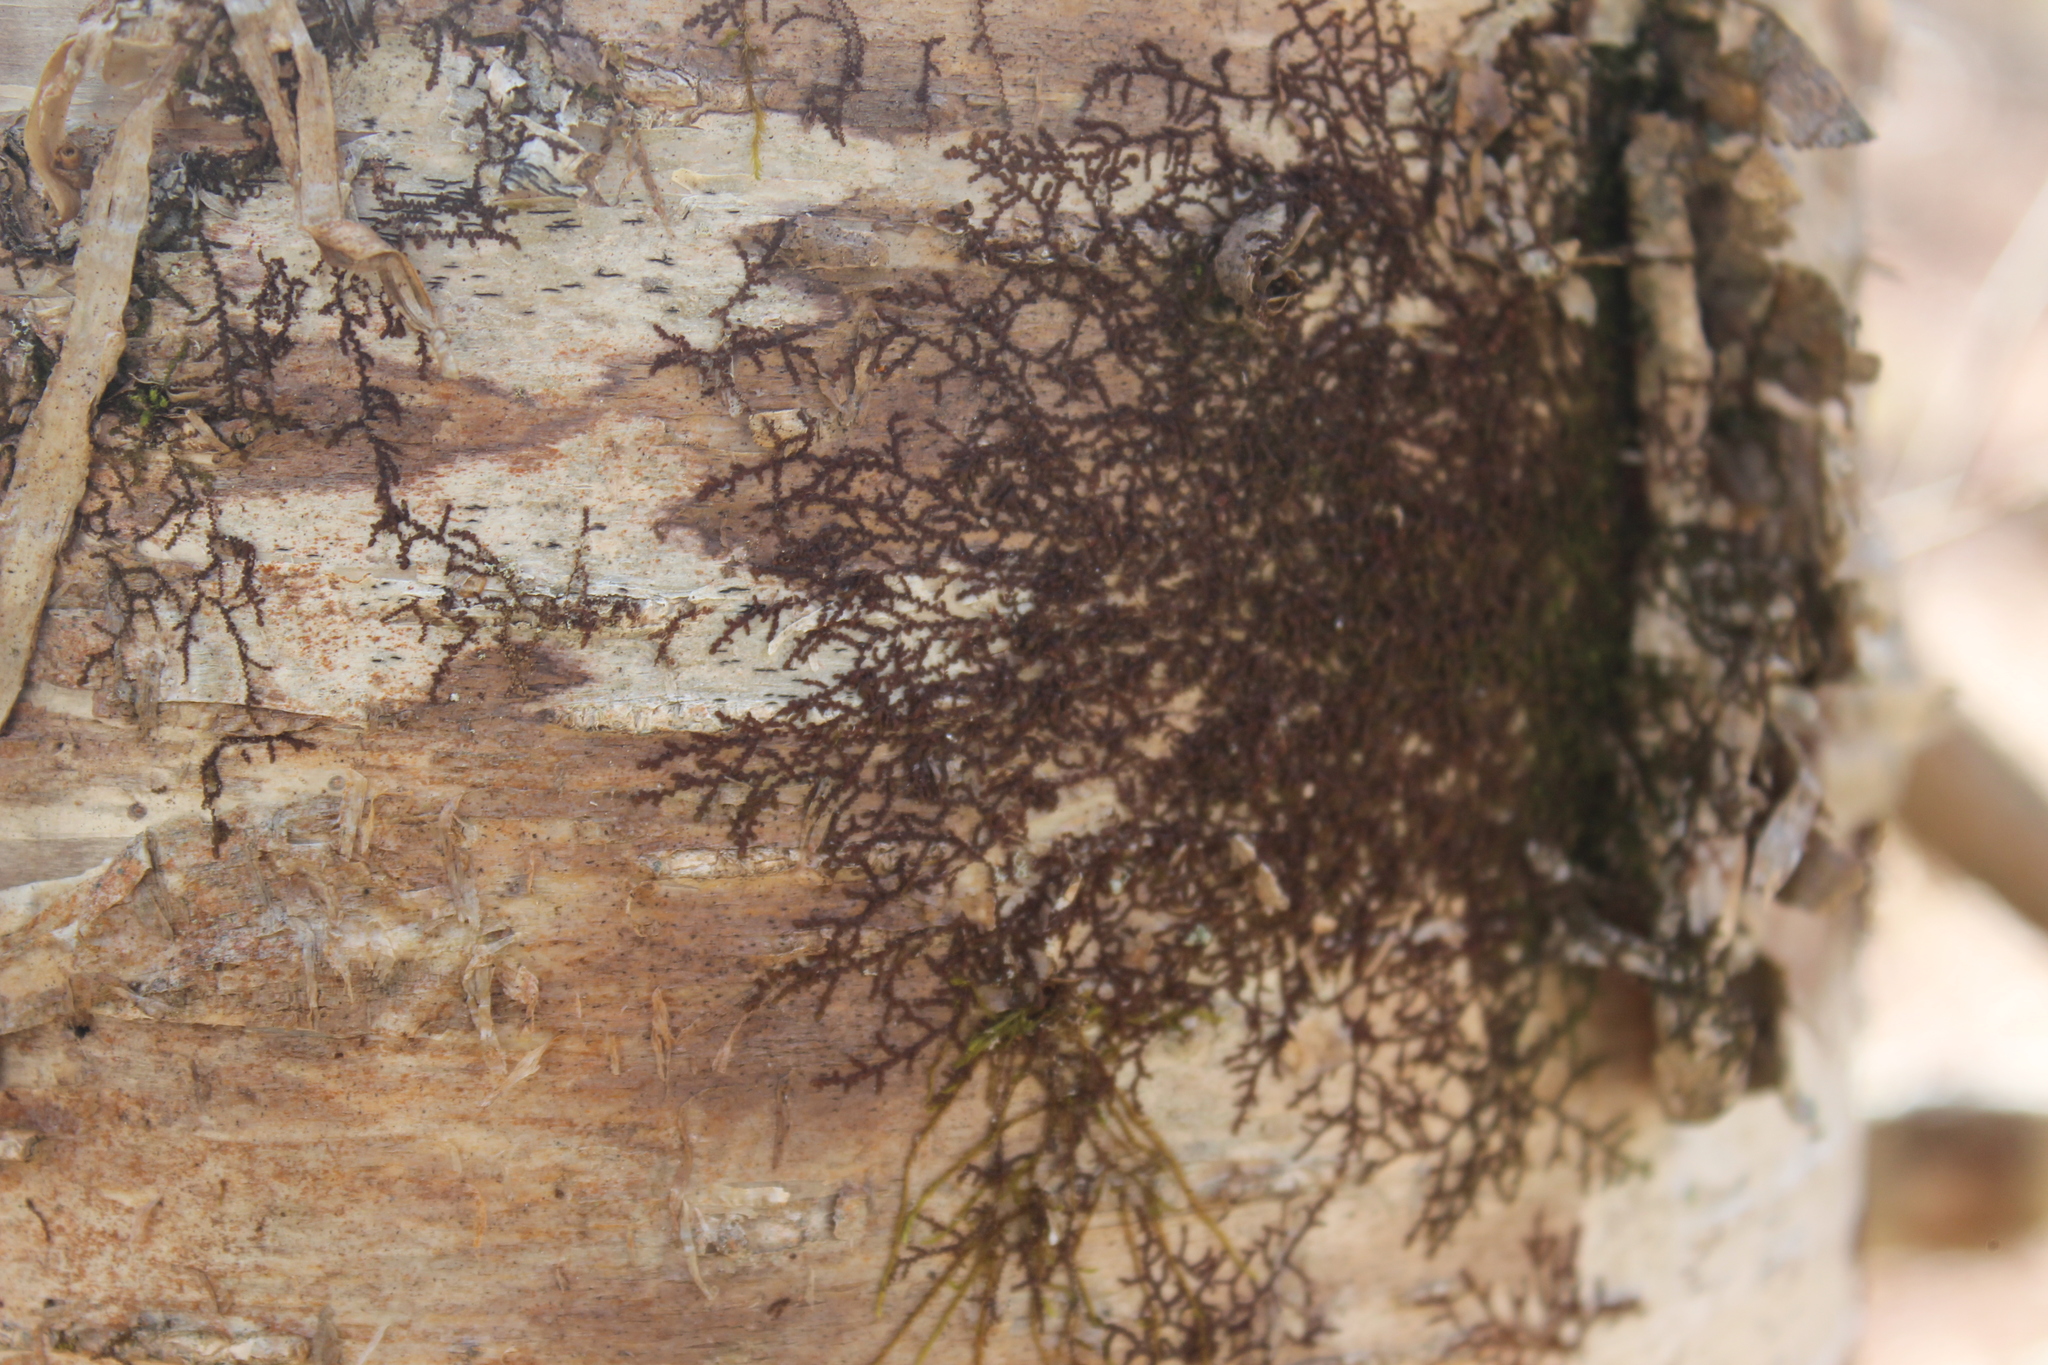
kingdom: Plantae
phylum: Marchantiophyta
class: Jungermanniopsida
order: Porellales
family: Frullaniaceae
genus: Frullania
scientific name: Frullania eboracensis
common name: New york scalewort
